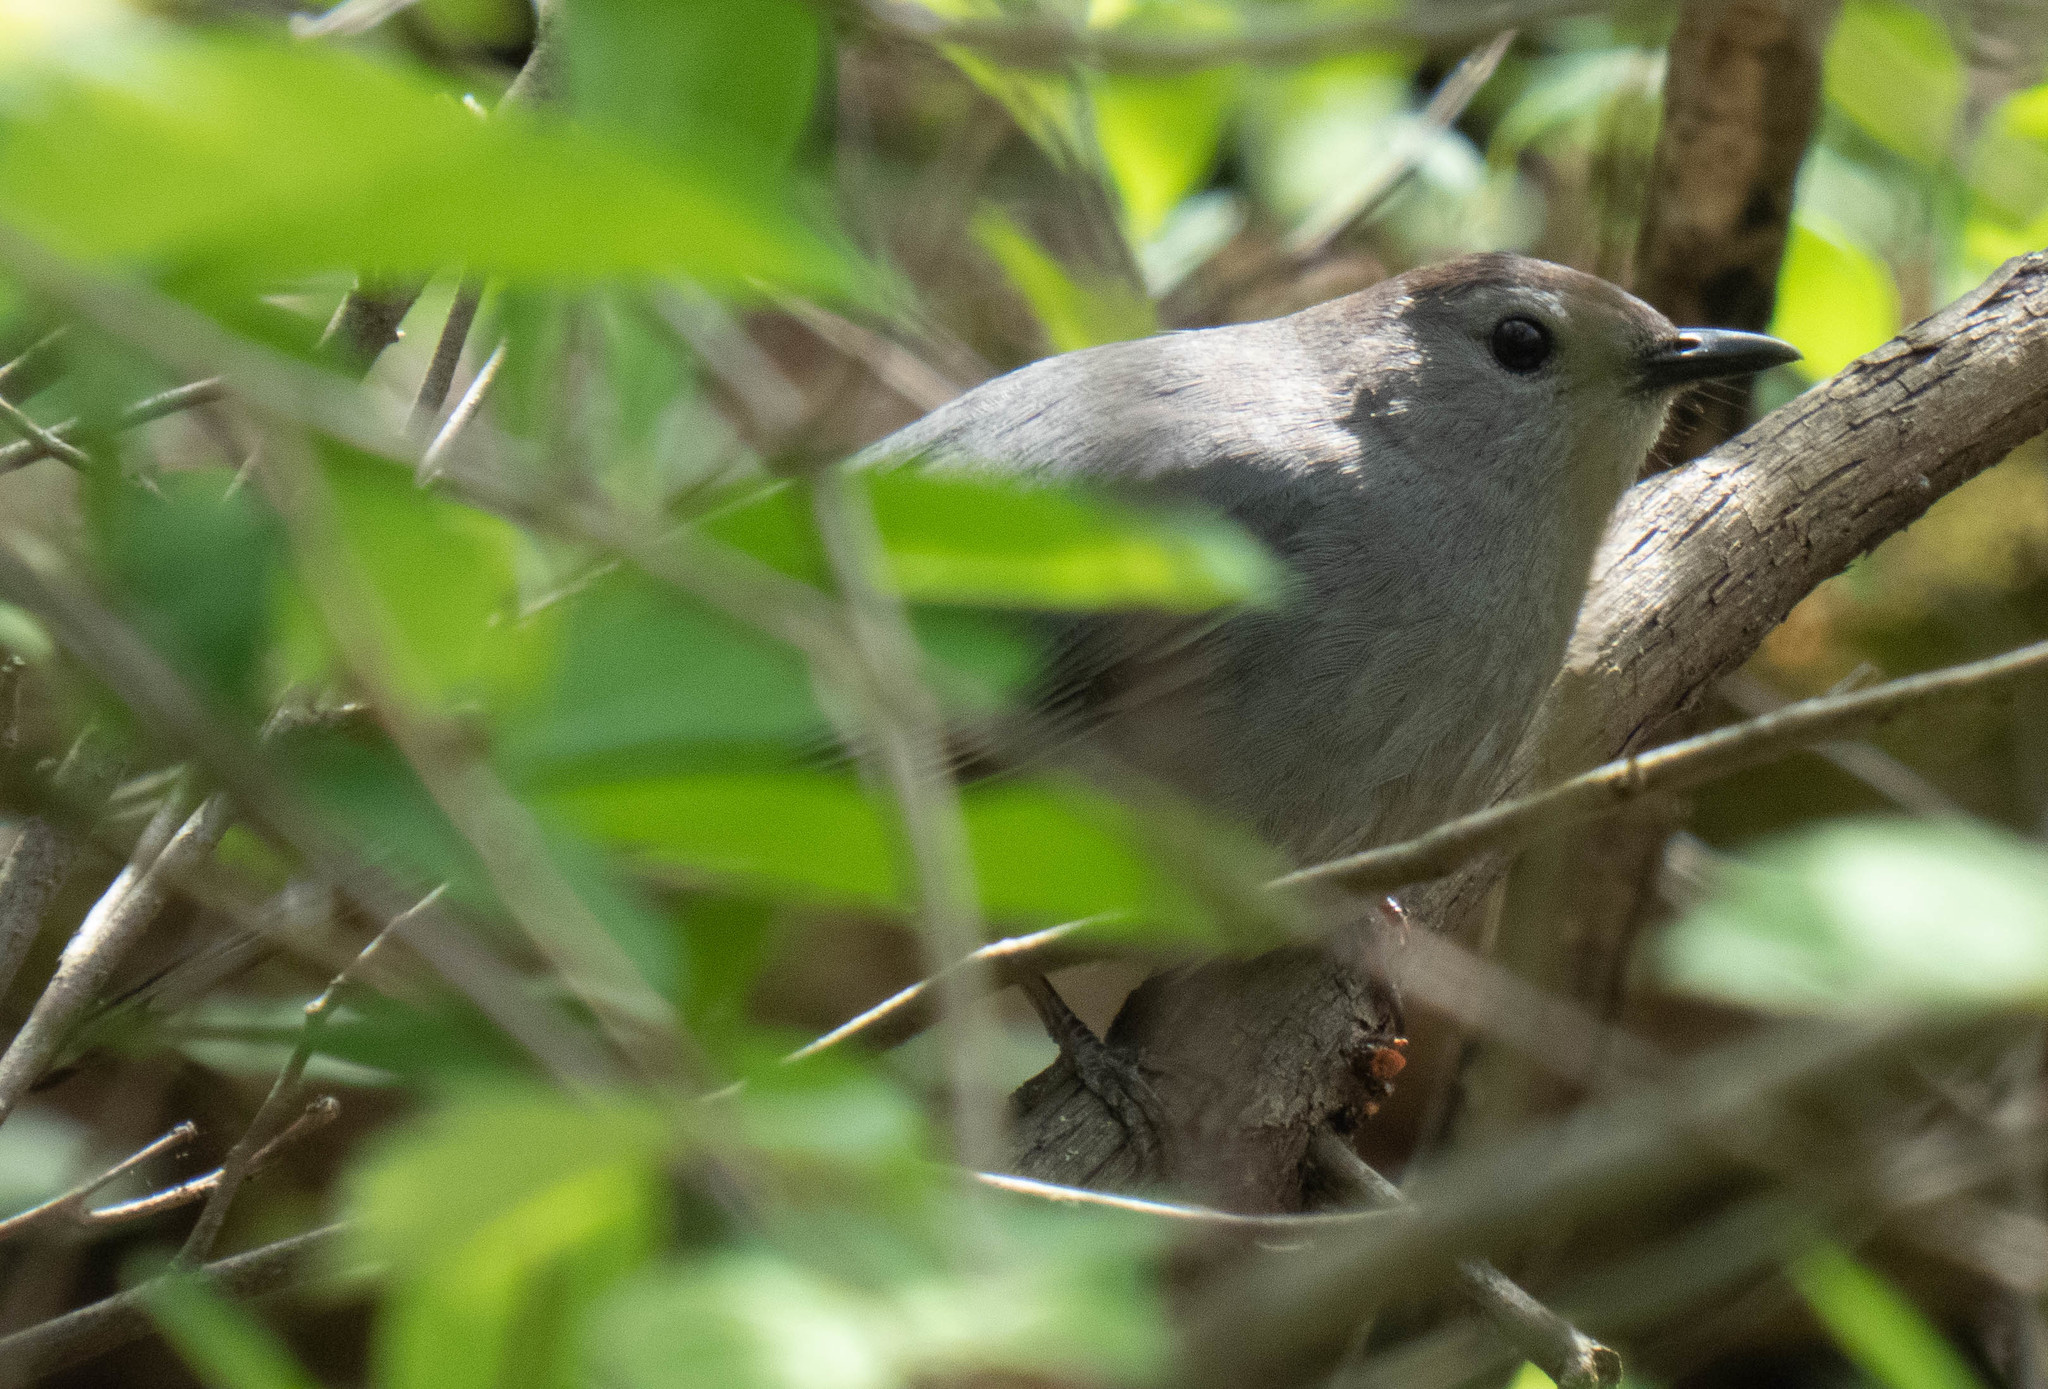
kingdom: Animalia
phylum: Chordata
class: Aves
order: Passeriformes
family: Mimidae
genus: Dumetella
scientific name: Dumetella carolinensis
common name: Gray catbird
